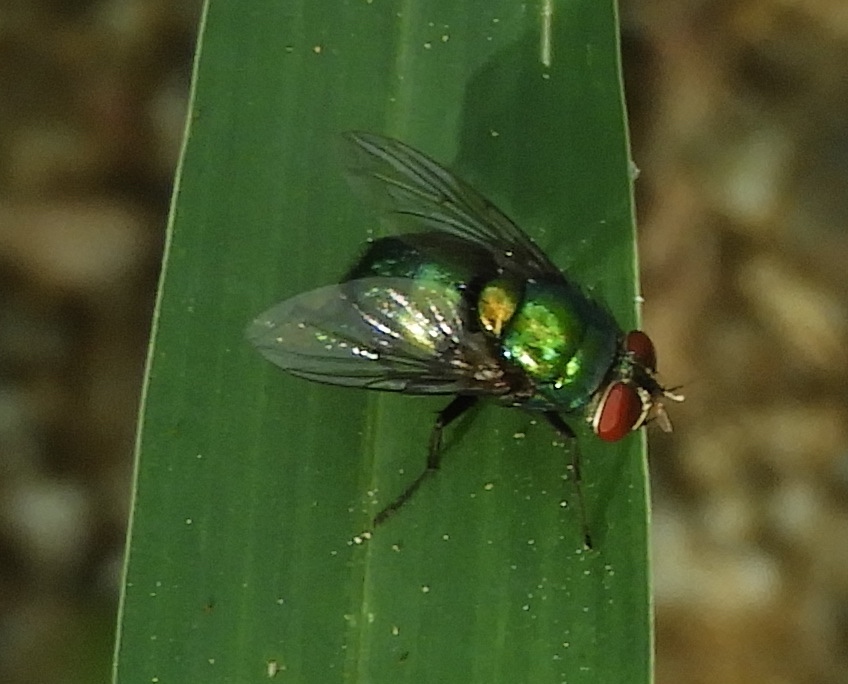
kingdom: Animalia
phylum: Arthropoda
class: Insecta
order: Diptera
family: Calliphoridae
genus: Lucilia
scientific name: Lucilia
